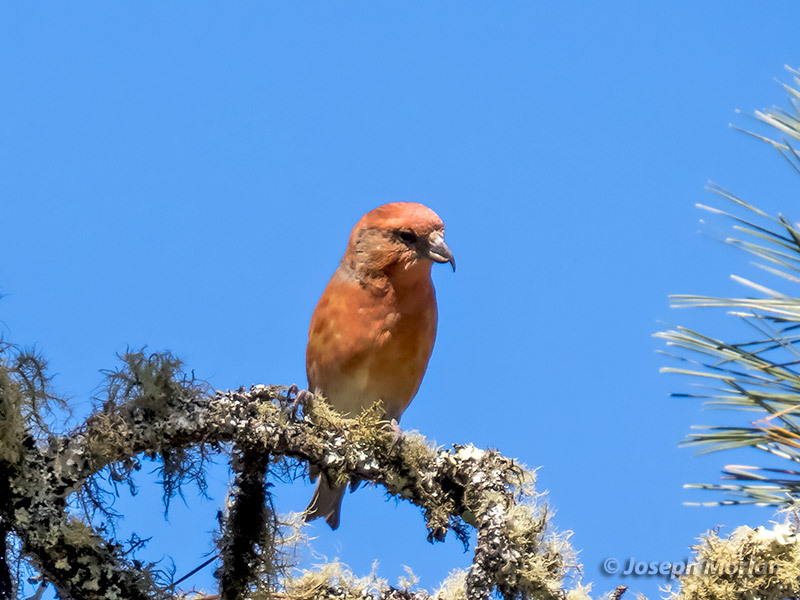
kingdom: Animalia
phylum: Chordata
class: Aves
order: Passeriformes
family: Fringillidae
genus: Loxia
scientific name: Loxia curvirostra
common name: Red crossbill
